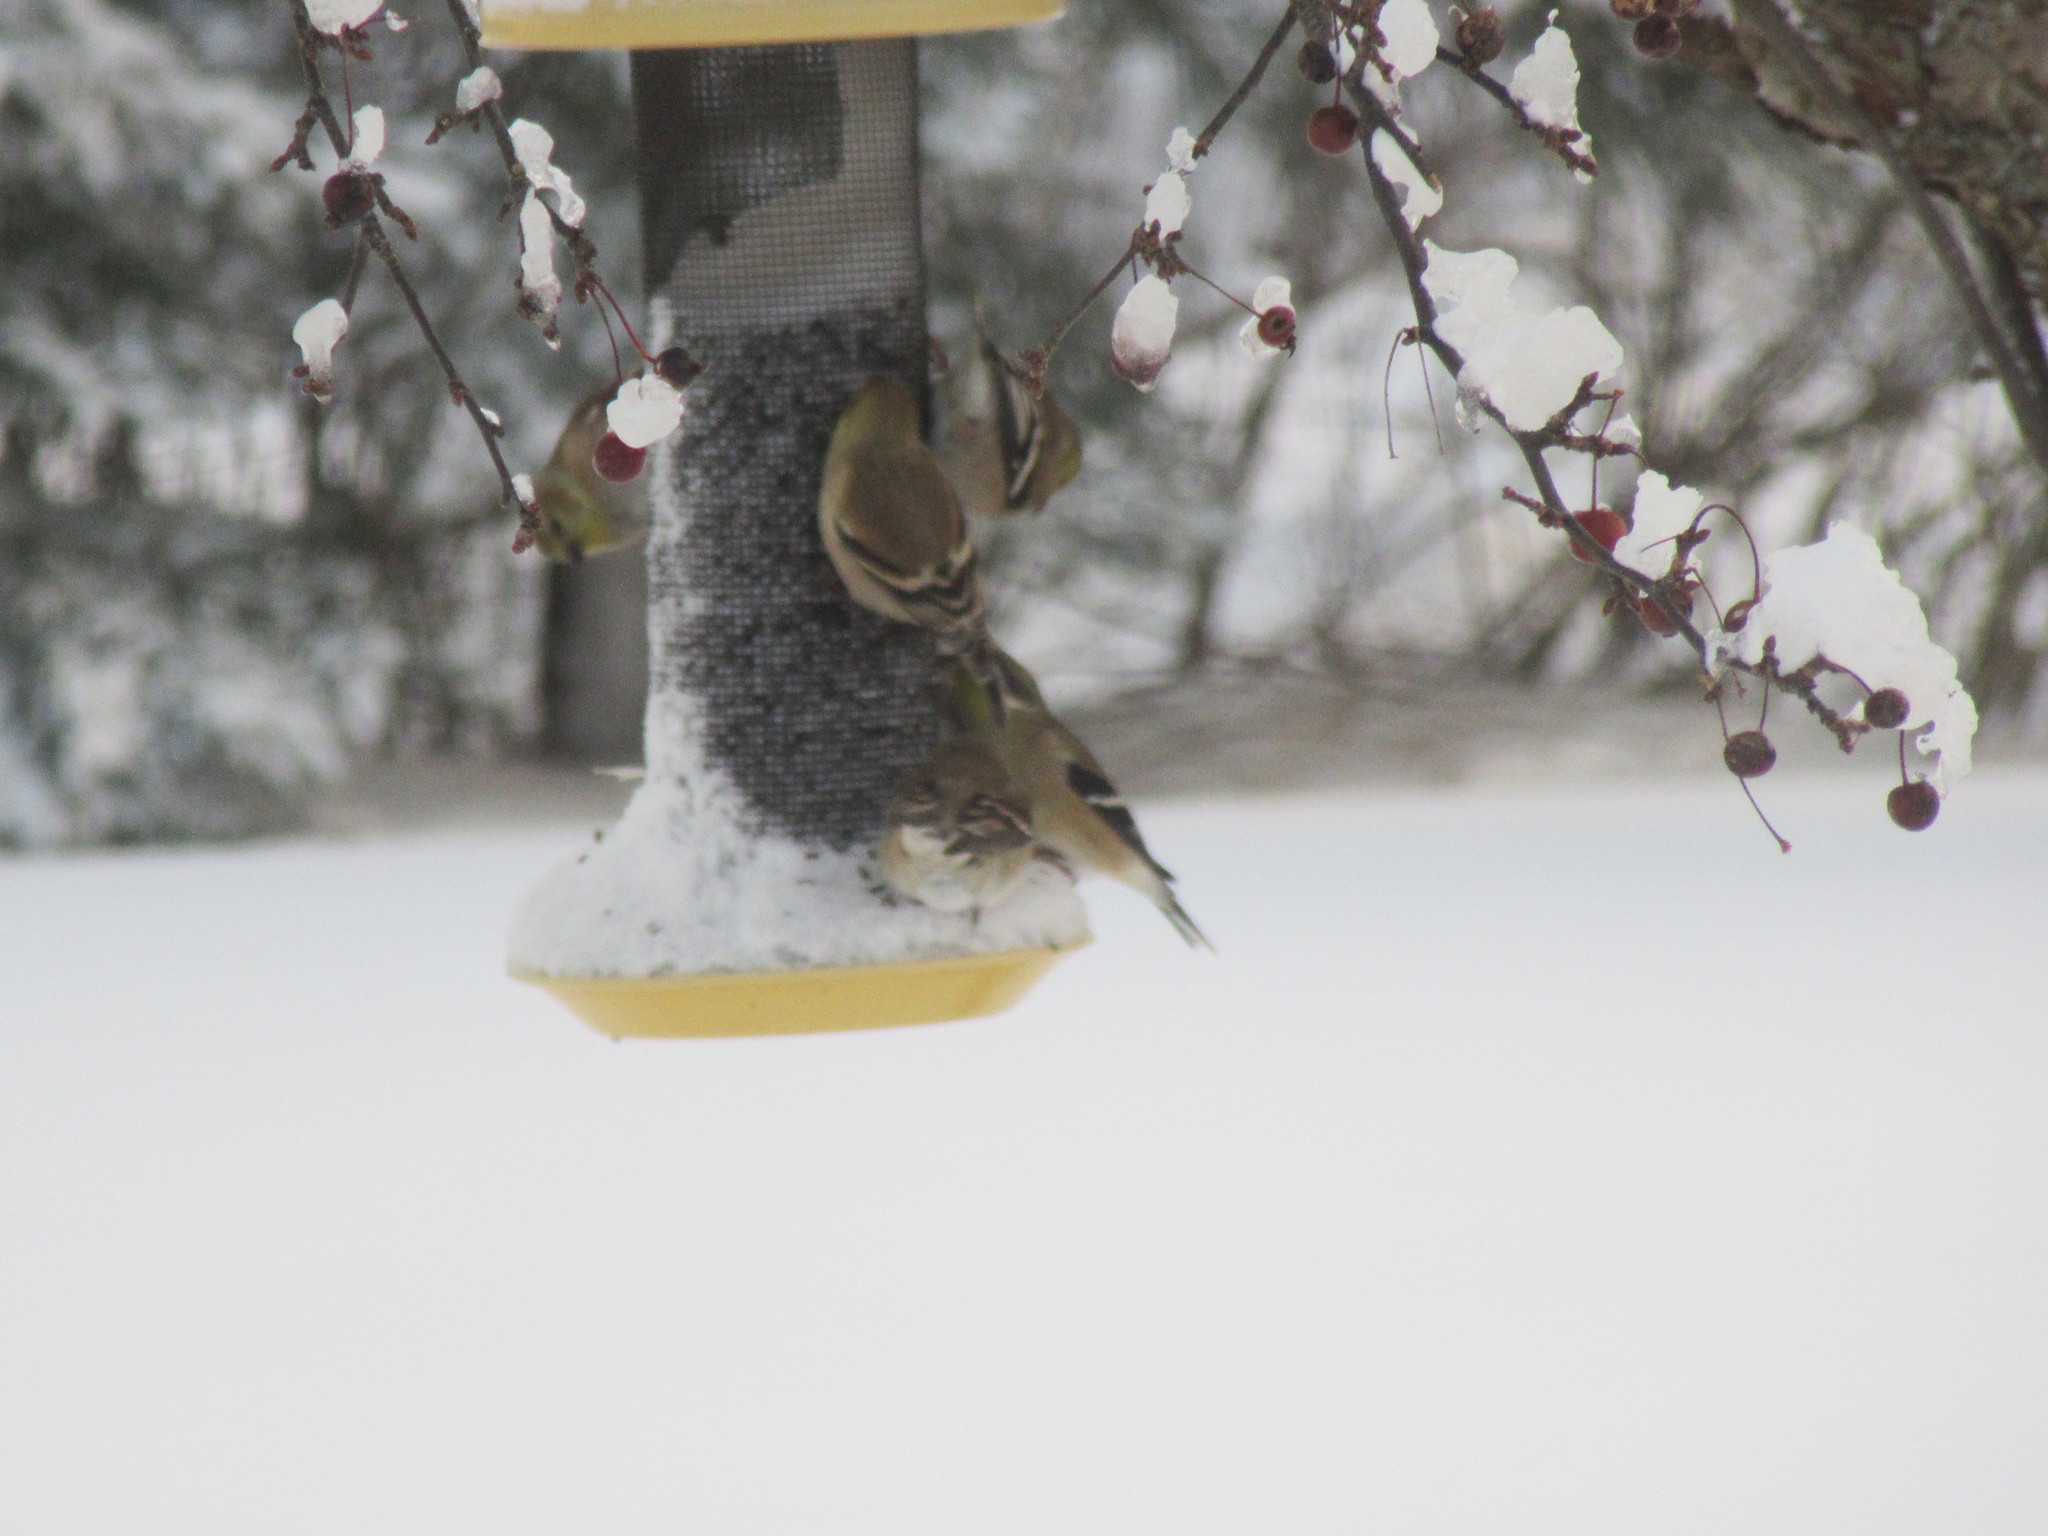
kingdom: Animalia
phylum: Chordata
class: Aves
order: Passeriformes
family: Fringillidae
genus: Spinus
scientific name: Spinus tristis
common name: American goldfinch
